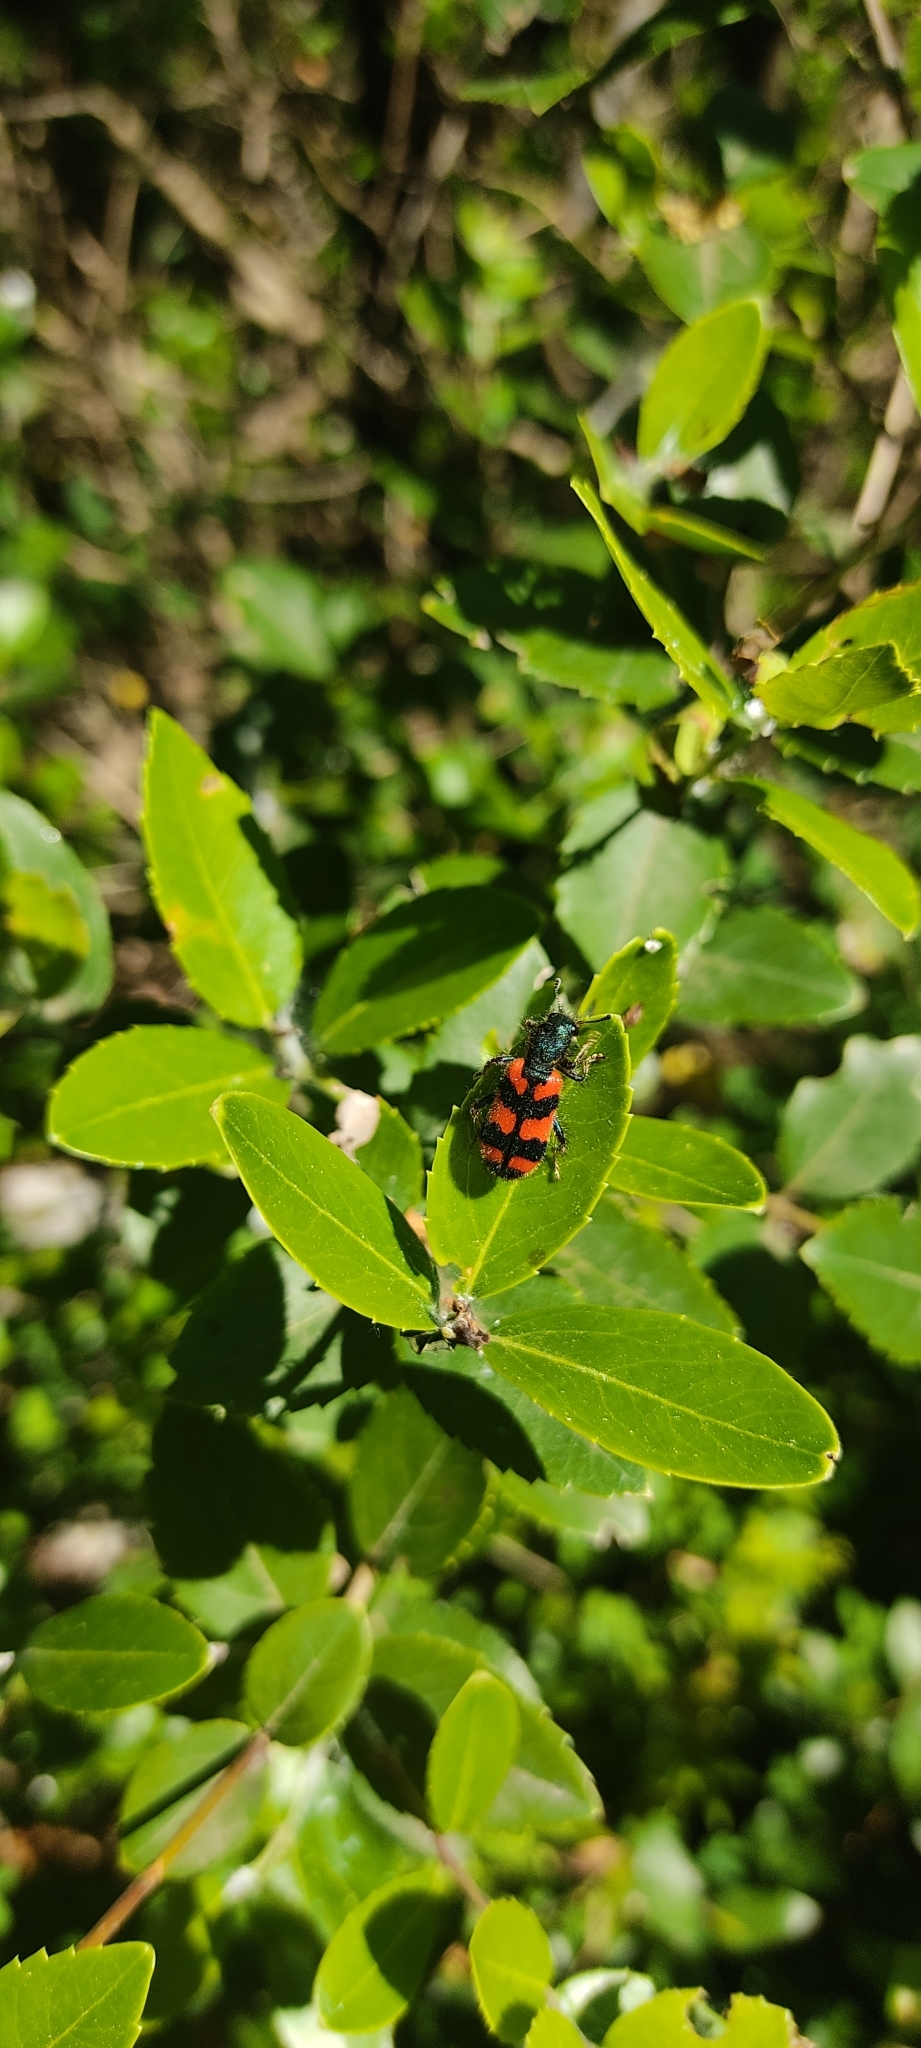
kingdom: Animalia
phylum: Arthropoda
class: Insecta
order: Coleoptera
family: Cleridae
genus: Trichodes
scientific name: Trichodes alvearius
